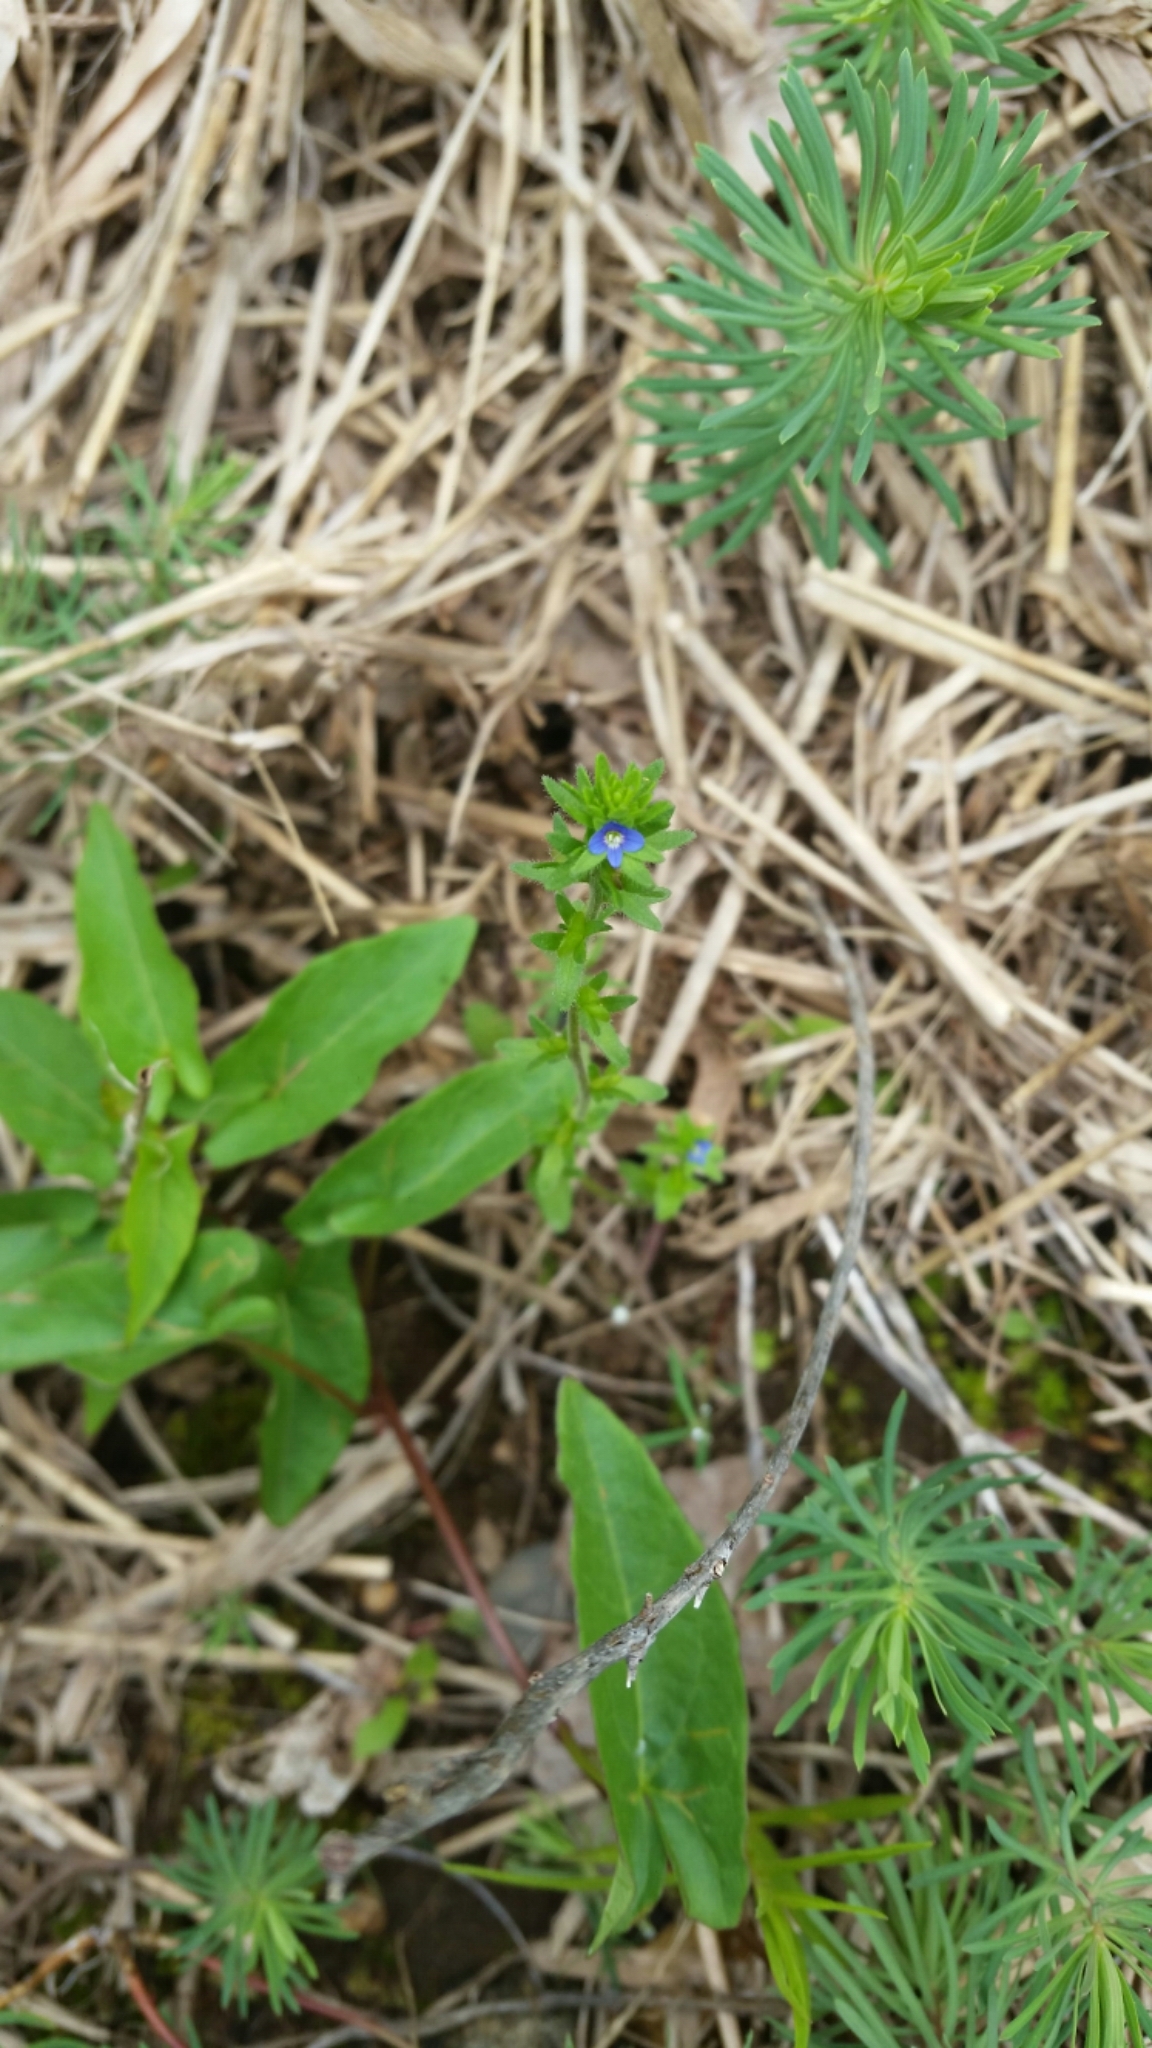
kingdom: Plantae
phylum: Tracheophyta
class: Magnoliopsida
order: Lamiales
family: Plantaginaceae
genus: Veronica
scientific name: Veronica arvensis
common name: Corn speedwell
